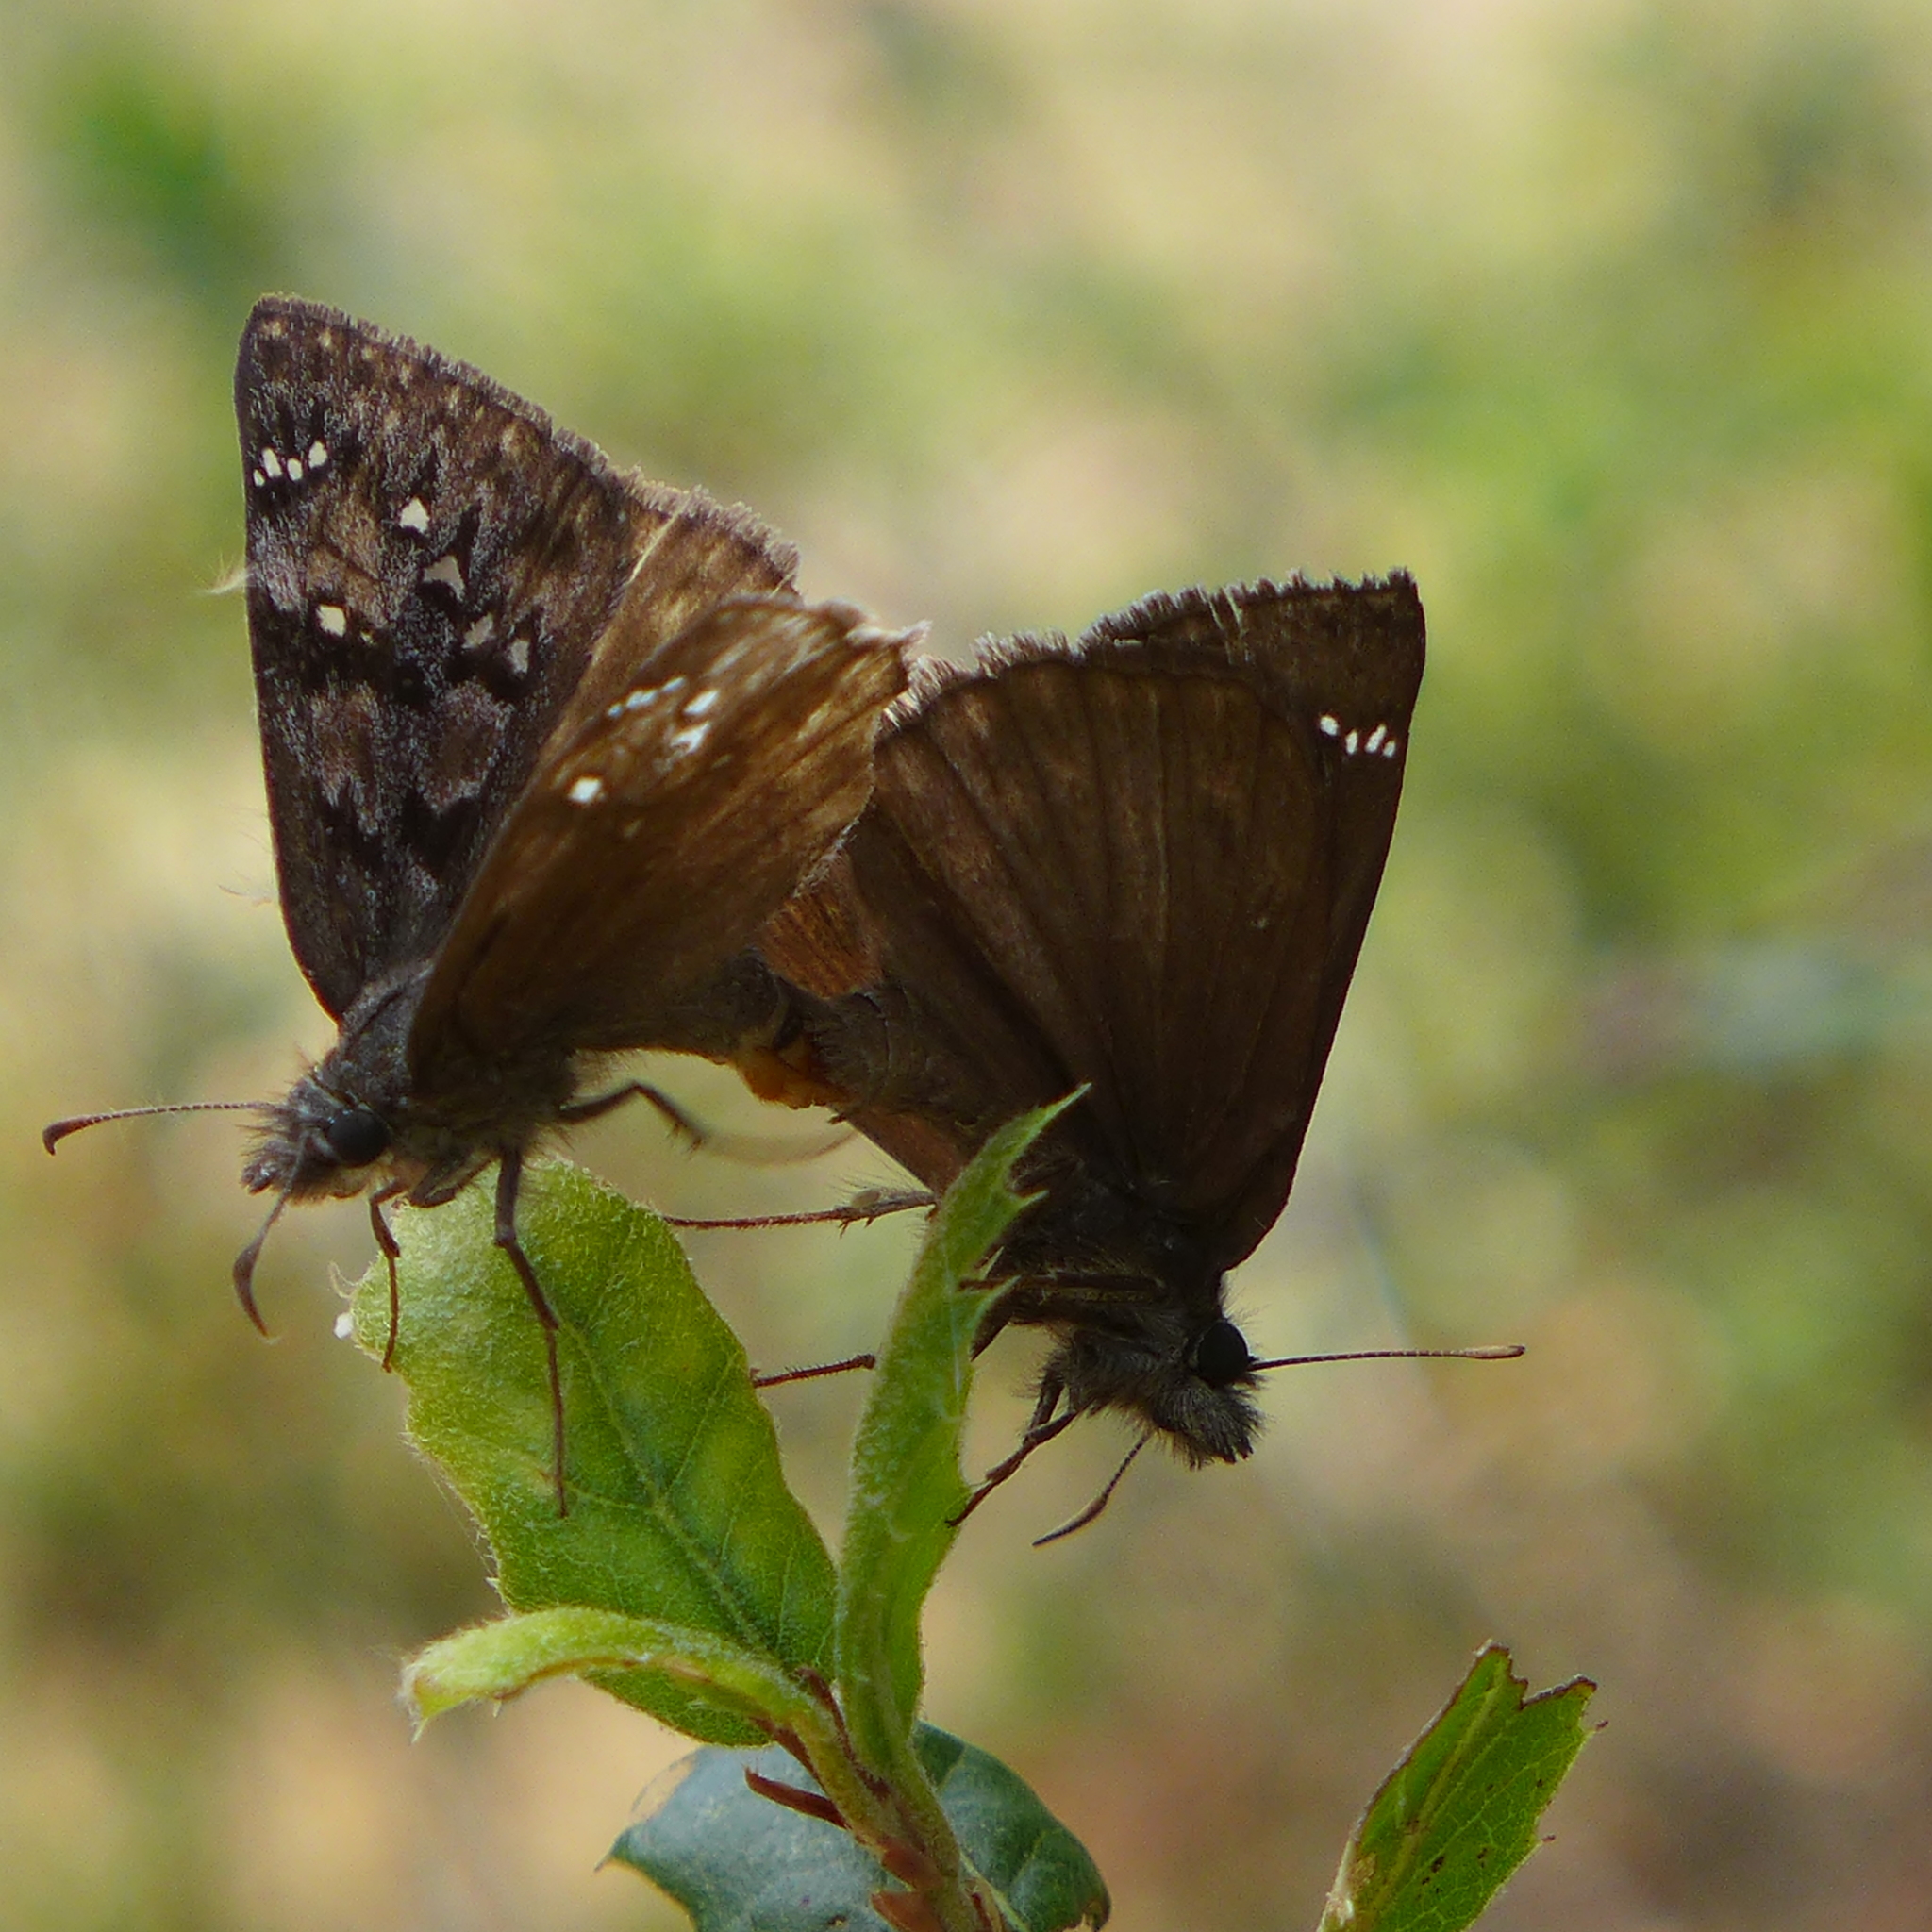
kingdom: Animalia
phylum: Arthropoda
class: Insecta
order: Lepidoptera
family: Hesperiidae
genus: Erynnis
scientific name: Erynnis propertius
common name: Propertius duskywing
